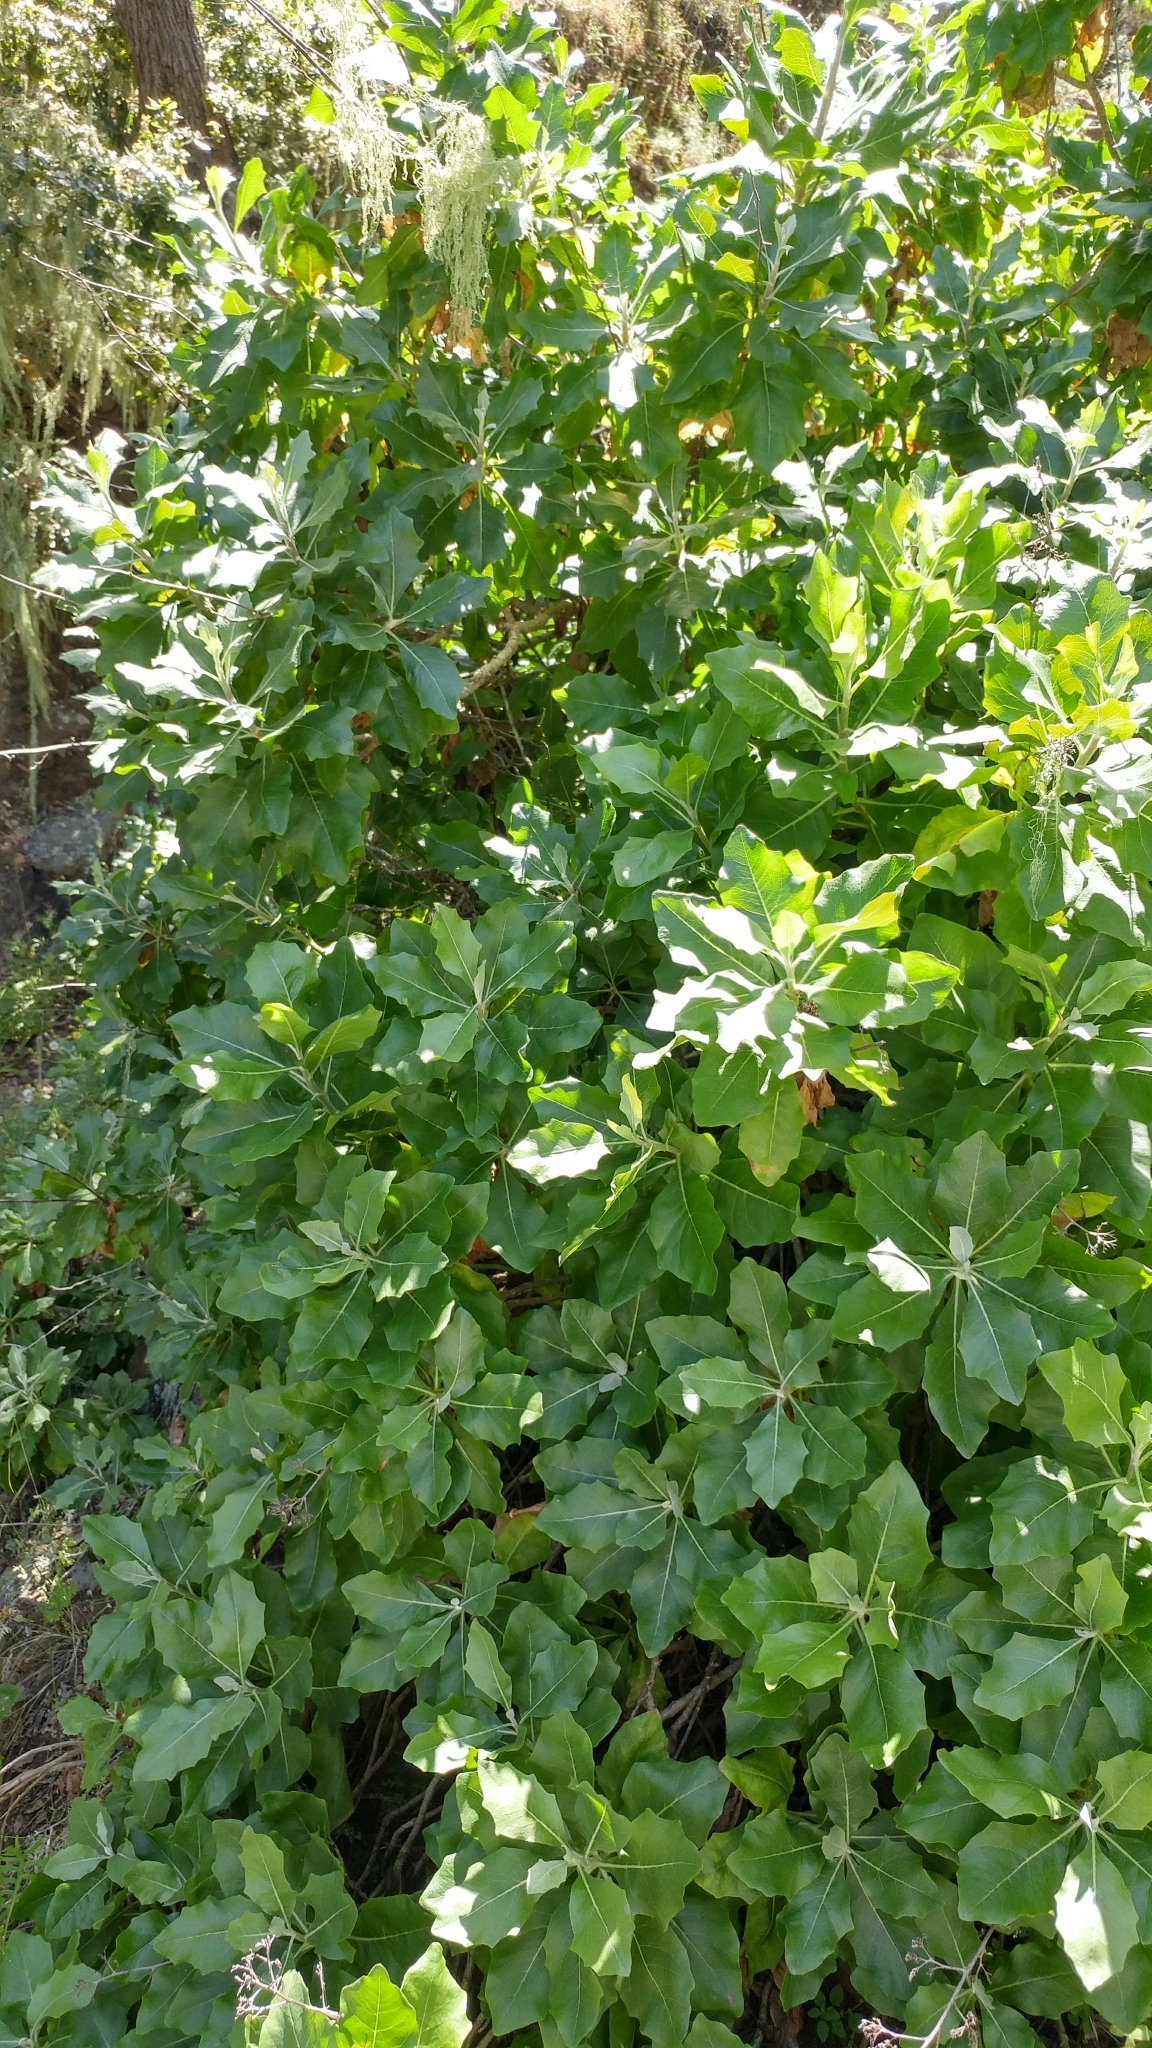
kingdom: Plantae
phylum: Tracheophyta
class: Magnoliopsida
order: Asterales
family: Asteraceae
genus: Munzothamnus
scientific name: Munzothamnus blairii
